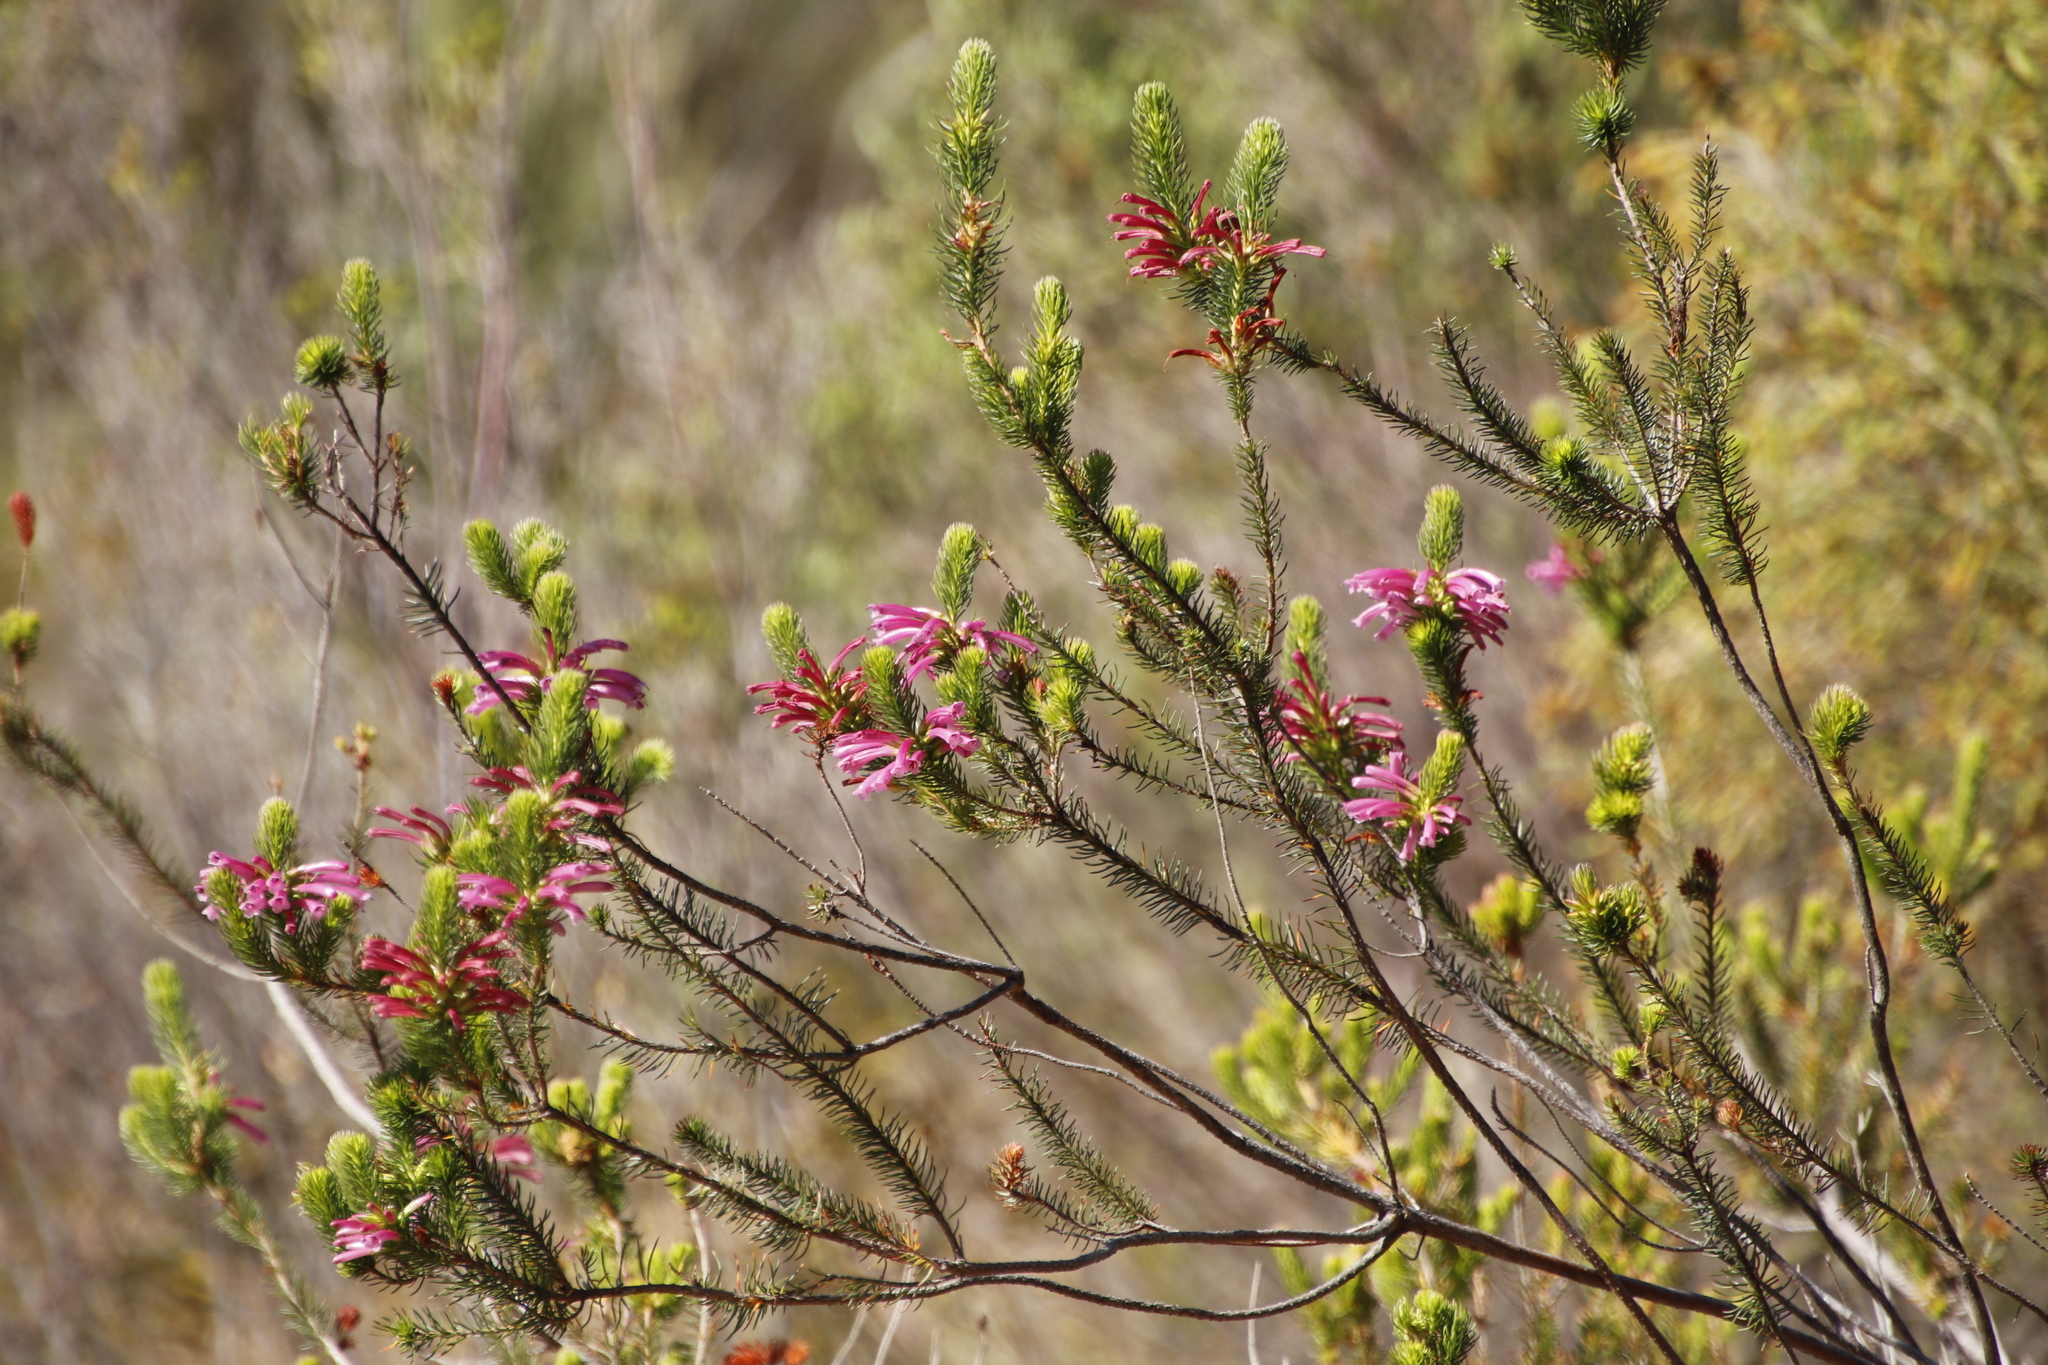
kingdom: Plantae
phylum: Tracheophyta
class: Magnoliopsida
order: Ericales
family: Ericaceae
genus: Erica
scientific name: Erica abietina
